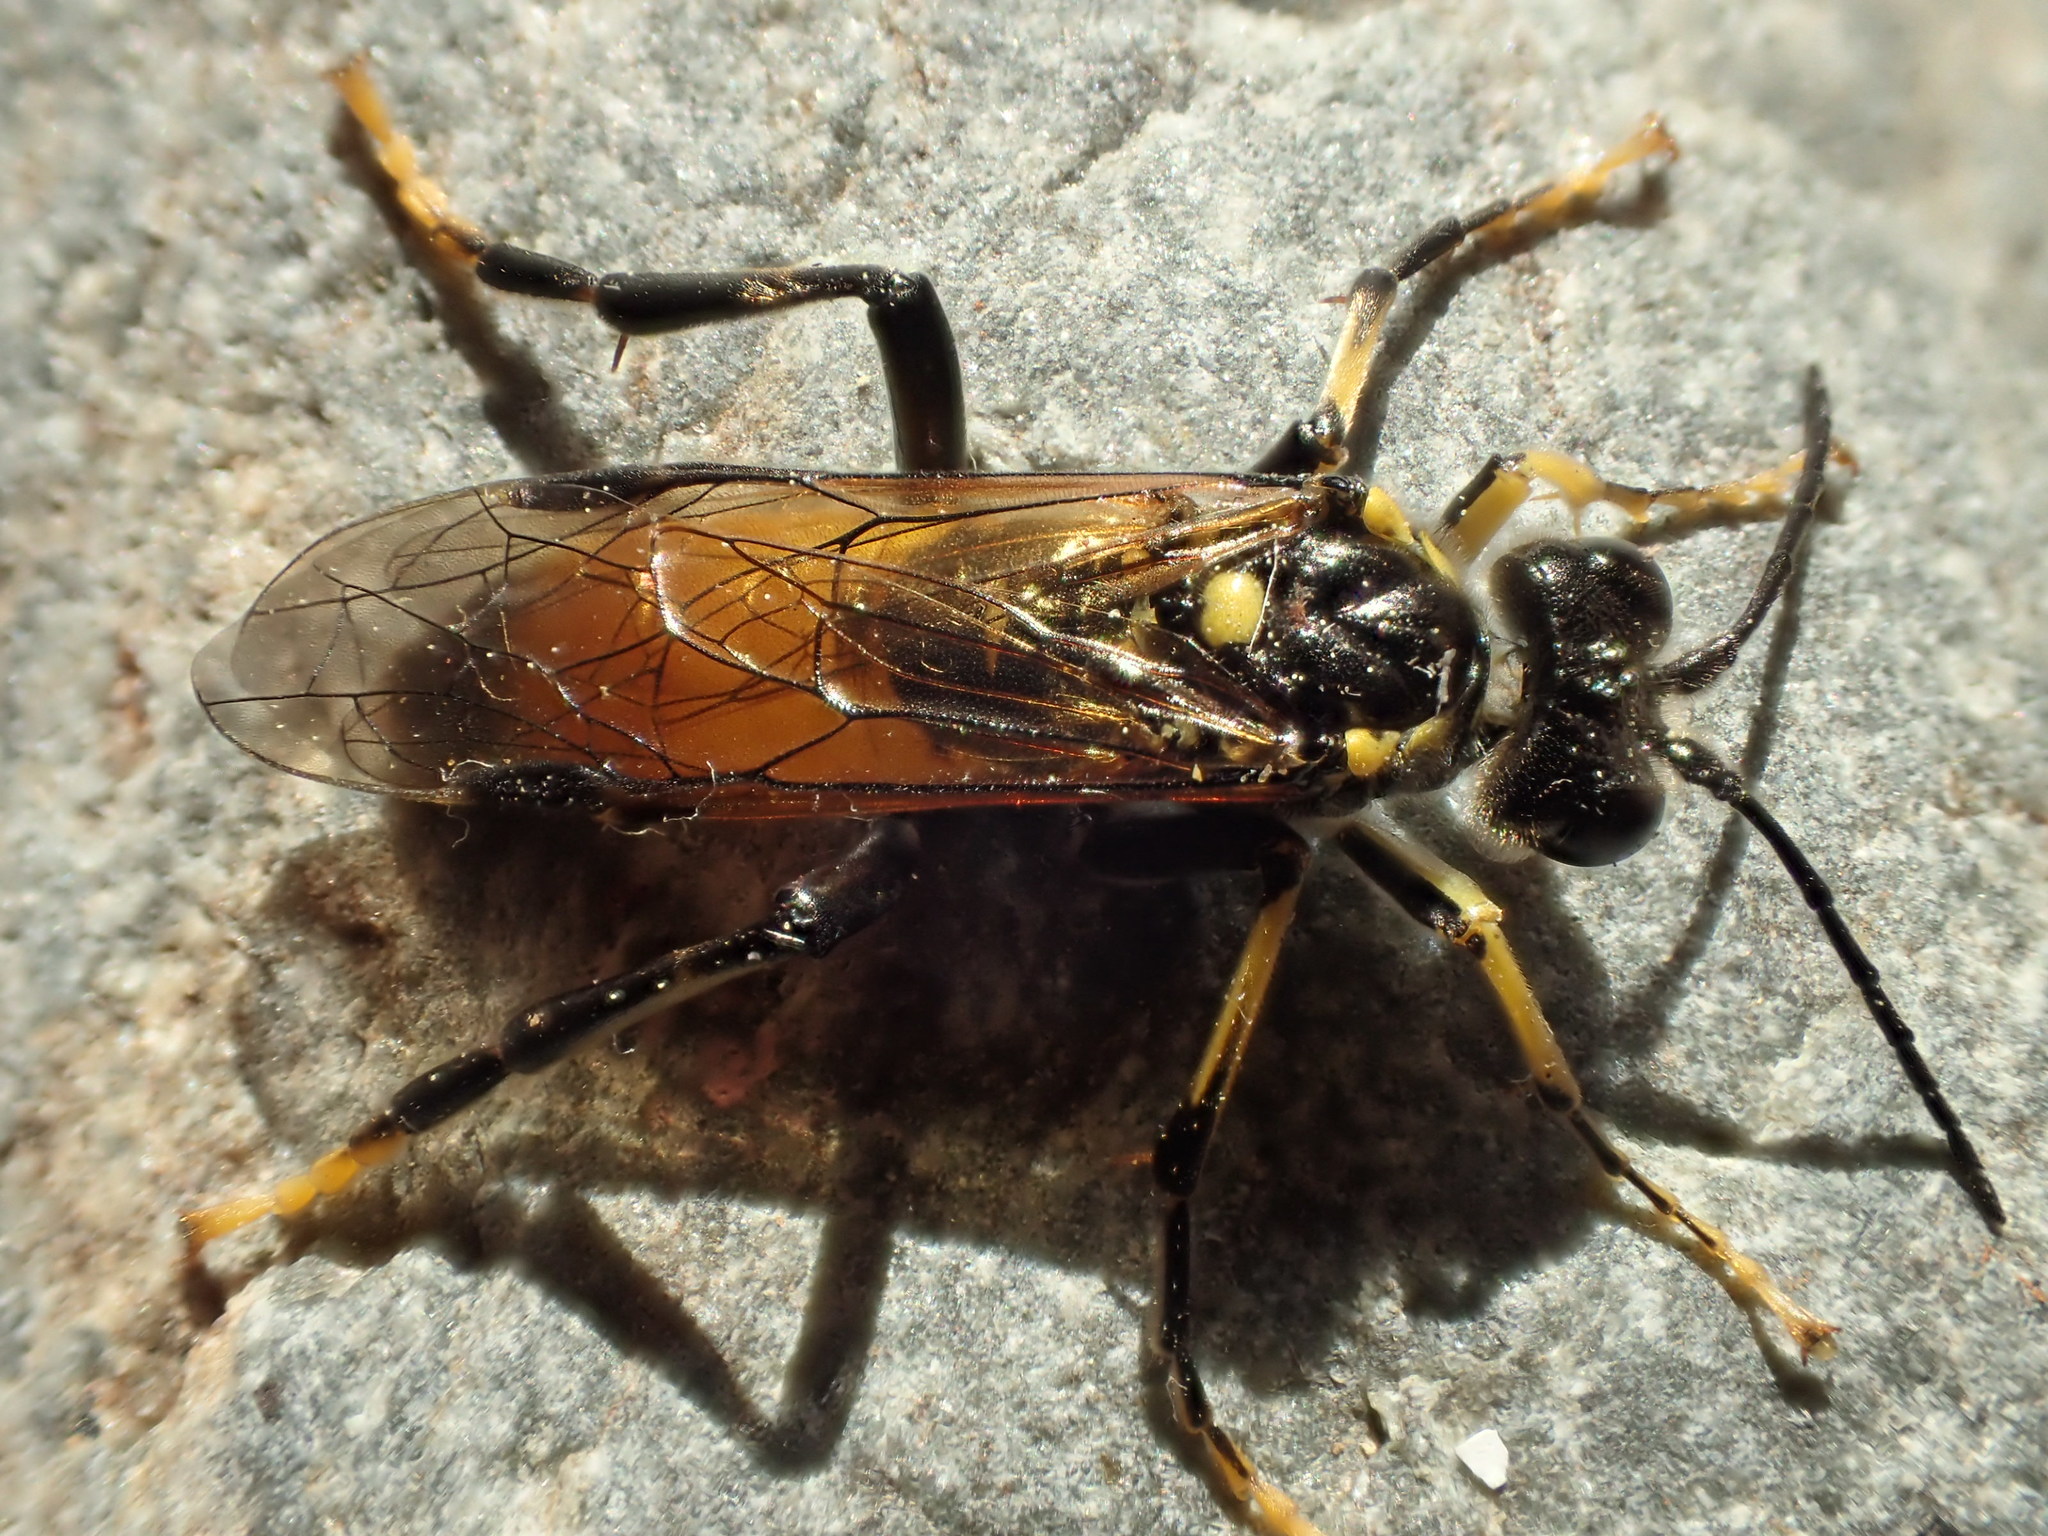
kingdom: Animalia
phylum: Arthropoda
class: Insecta
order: Hymenoptera
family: Tenthredinidae
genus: Tenthredo
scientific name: Tenthredo maculata
